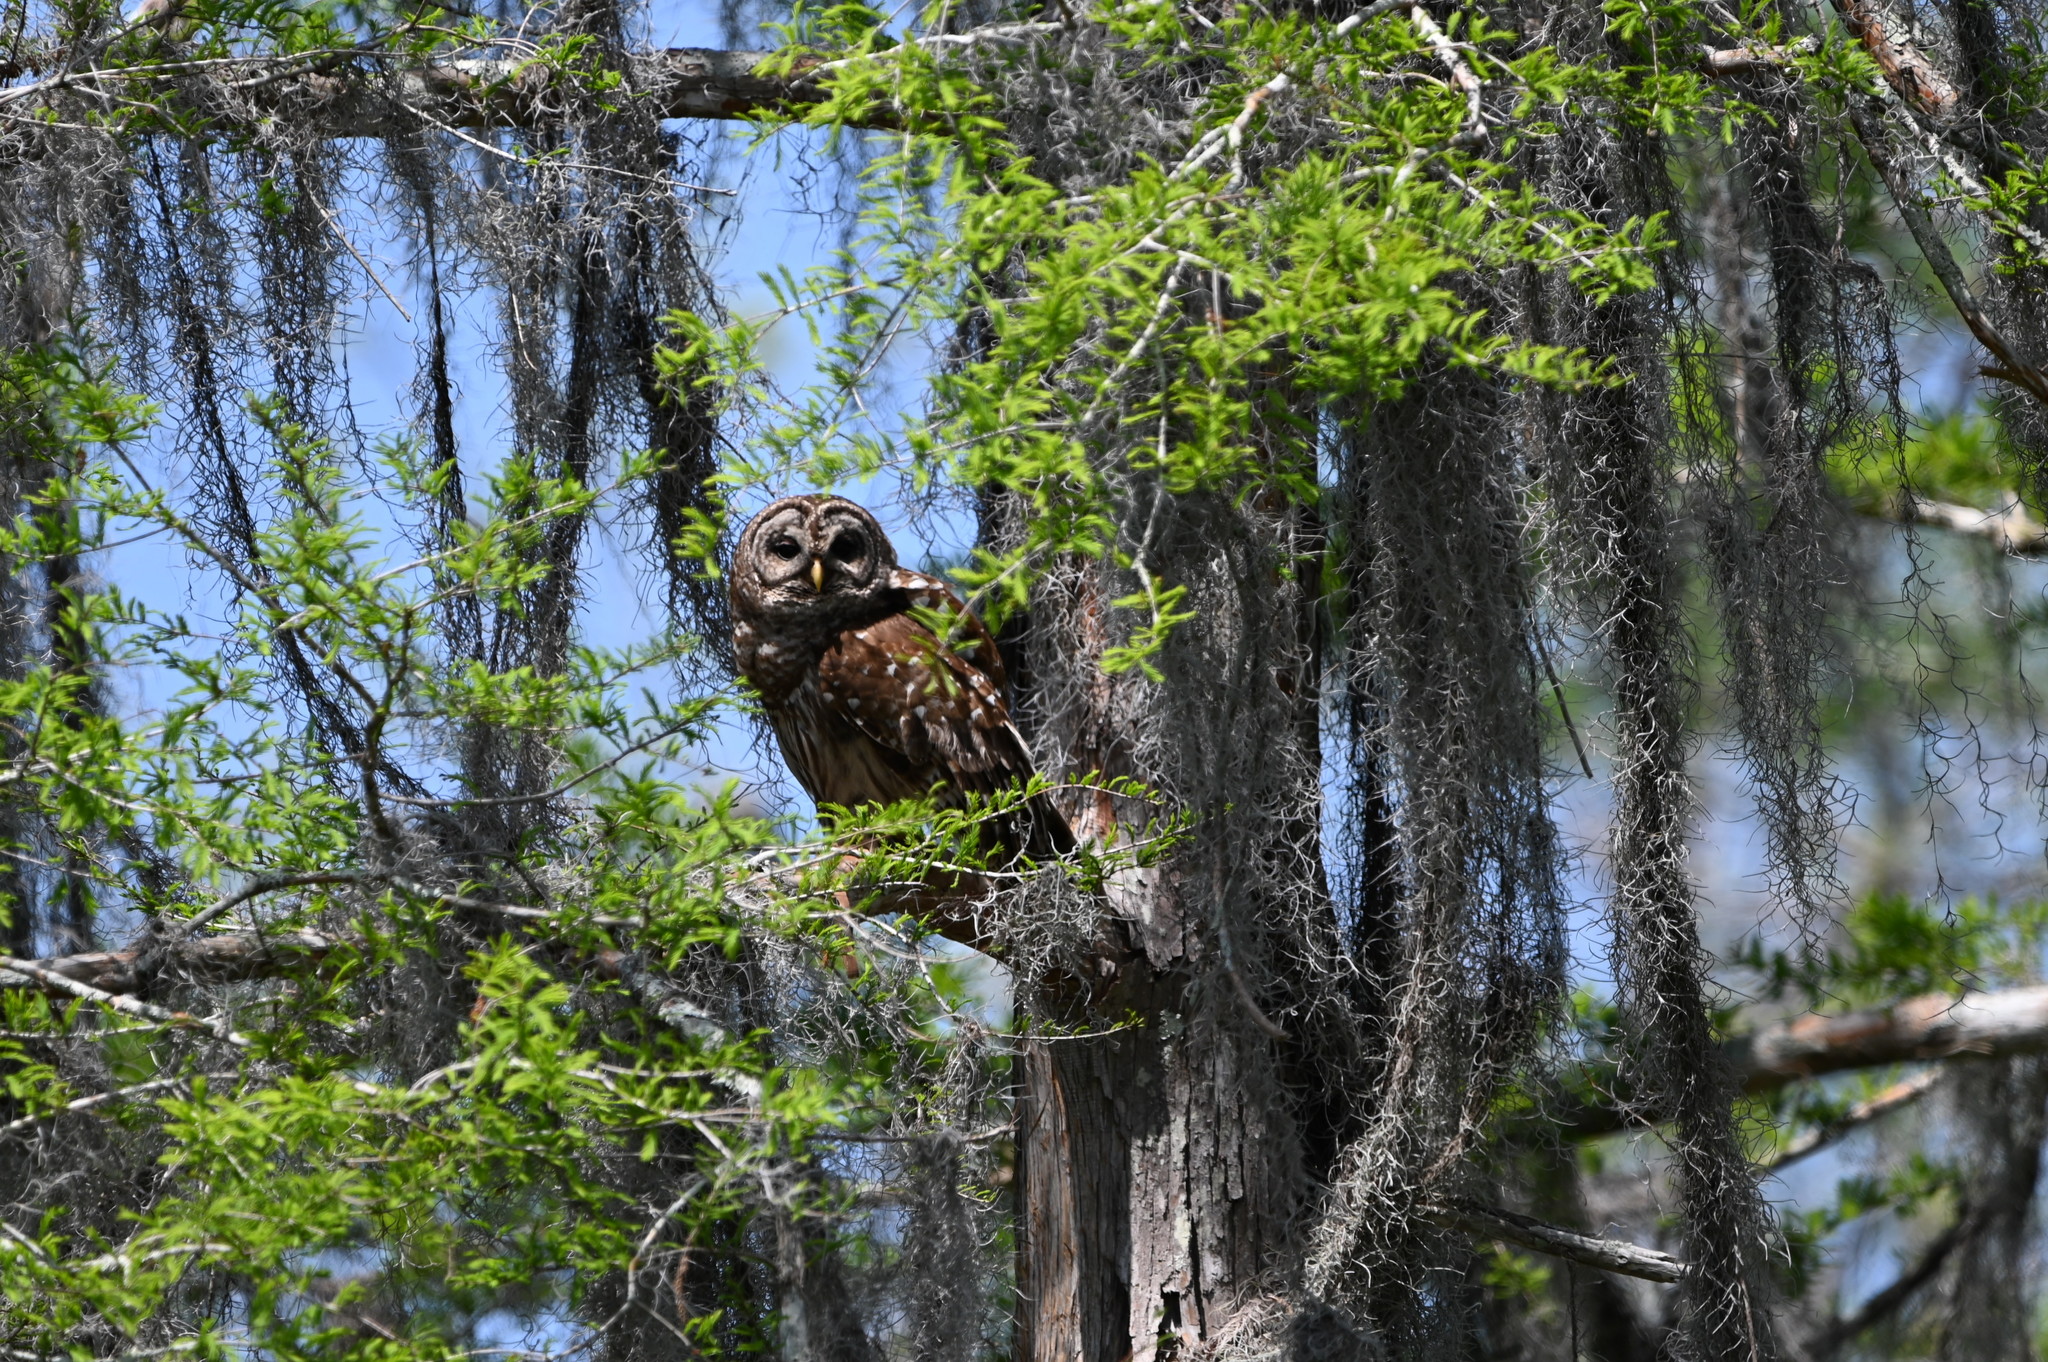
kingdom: Animalia
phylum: Chordata
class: Aves
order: Strigiformes
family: Strigidae
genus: Strix
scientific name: Strix varia
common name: Barred owl
